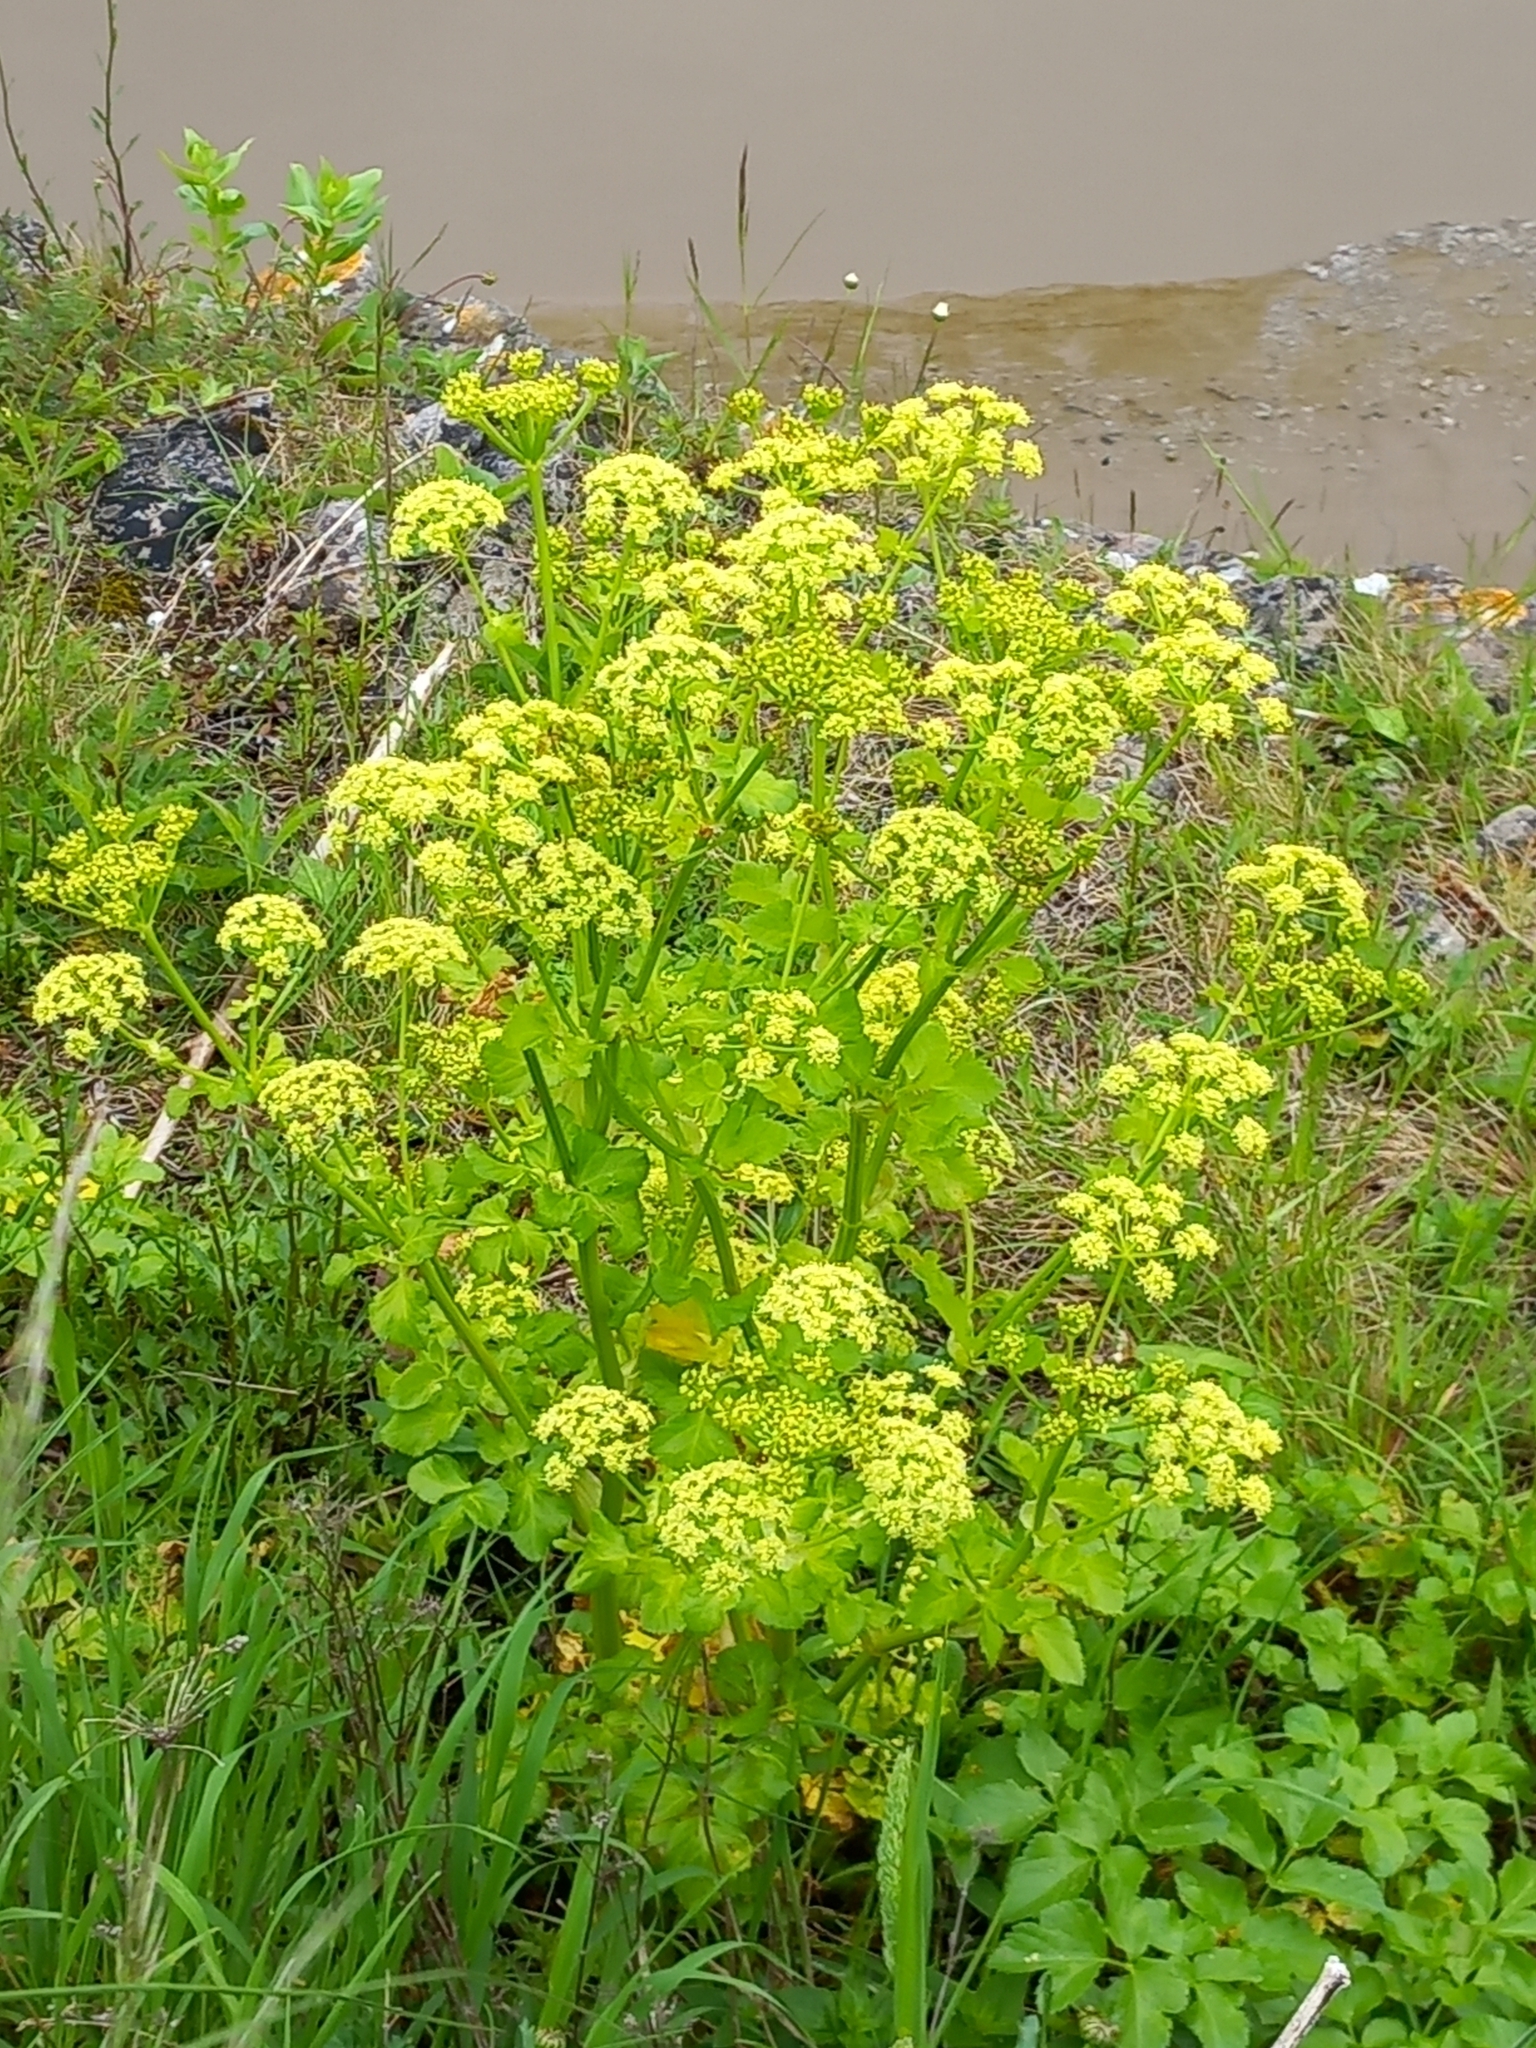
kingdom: Plantae
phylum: Tracheophyta
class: Magnoliopsida
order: Apiales
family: Apiaceae
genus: Smyrnium
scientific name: Smyrnium olusatrum
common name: Alexanders
